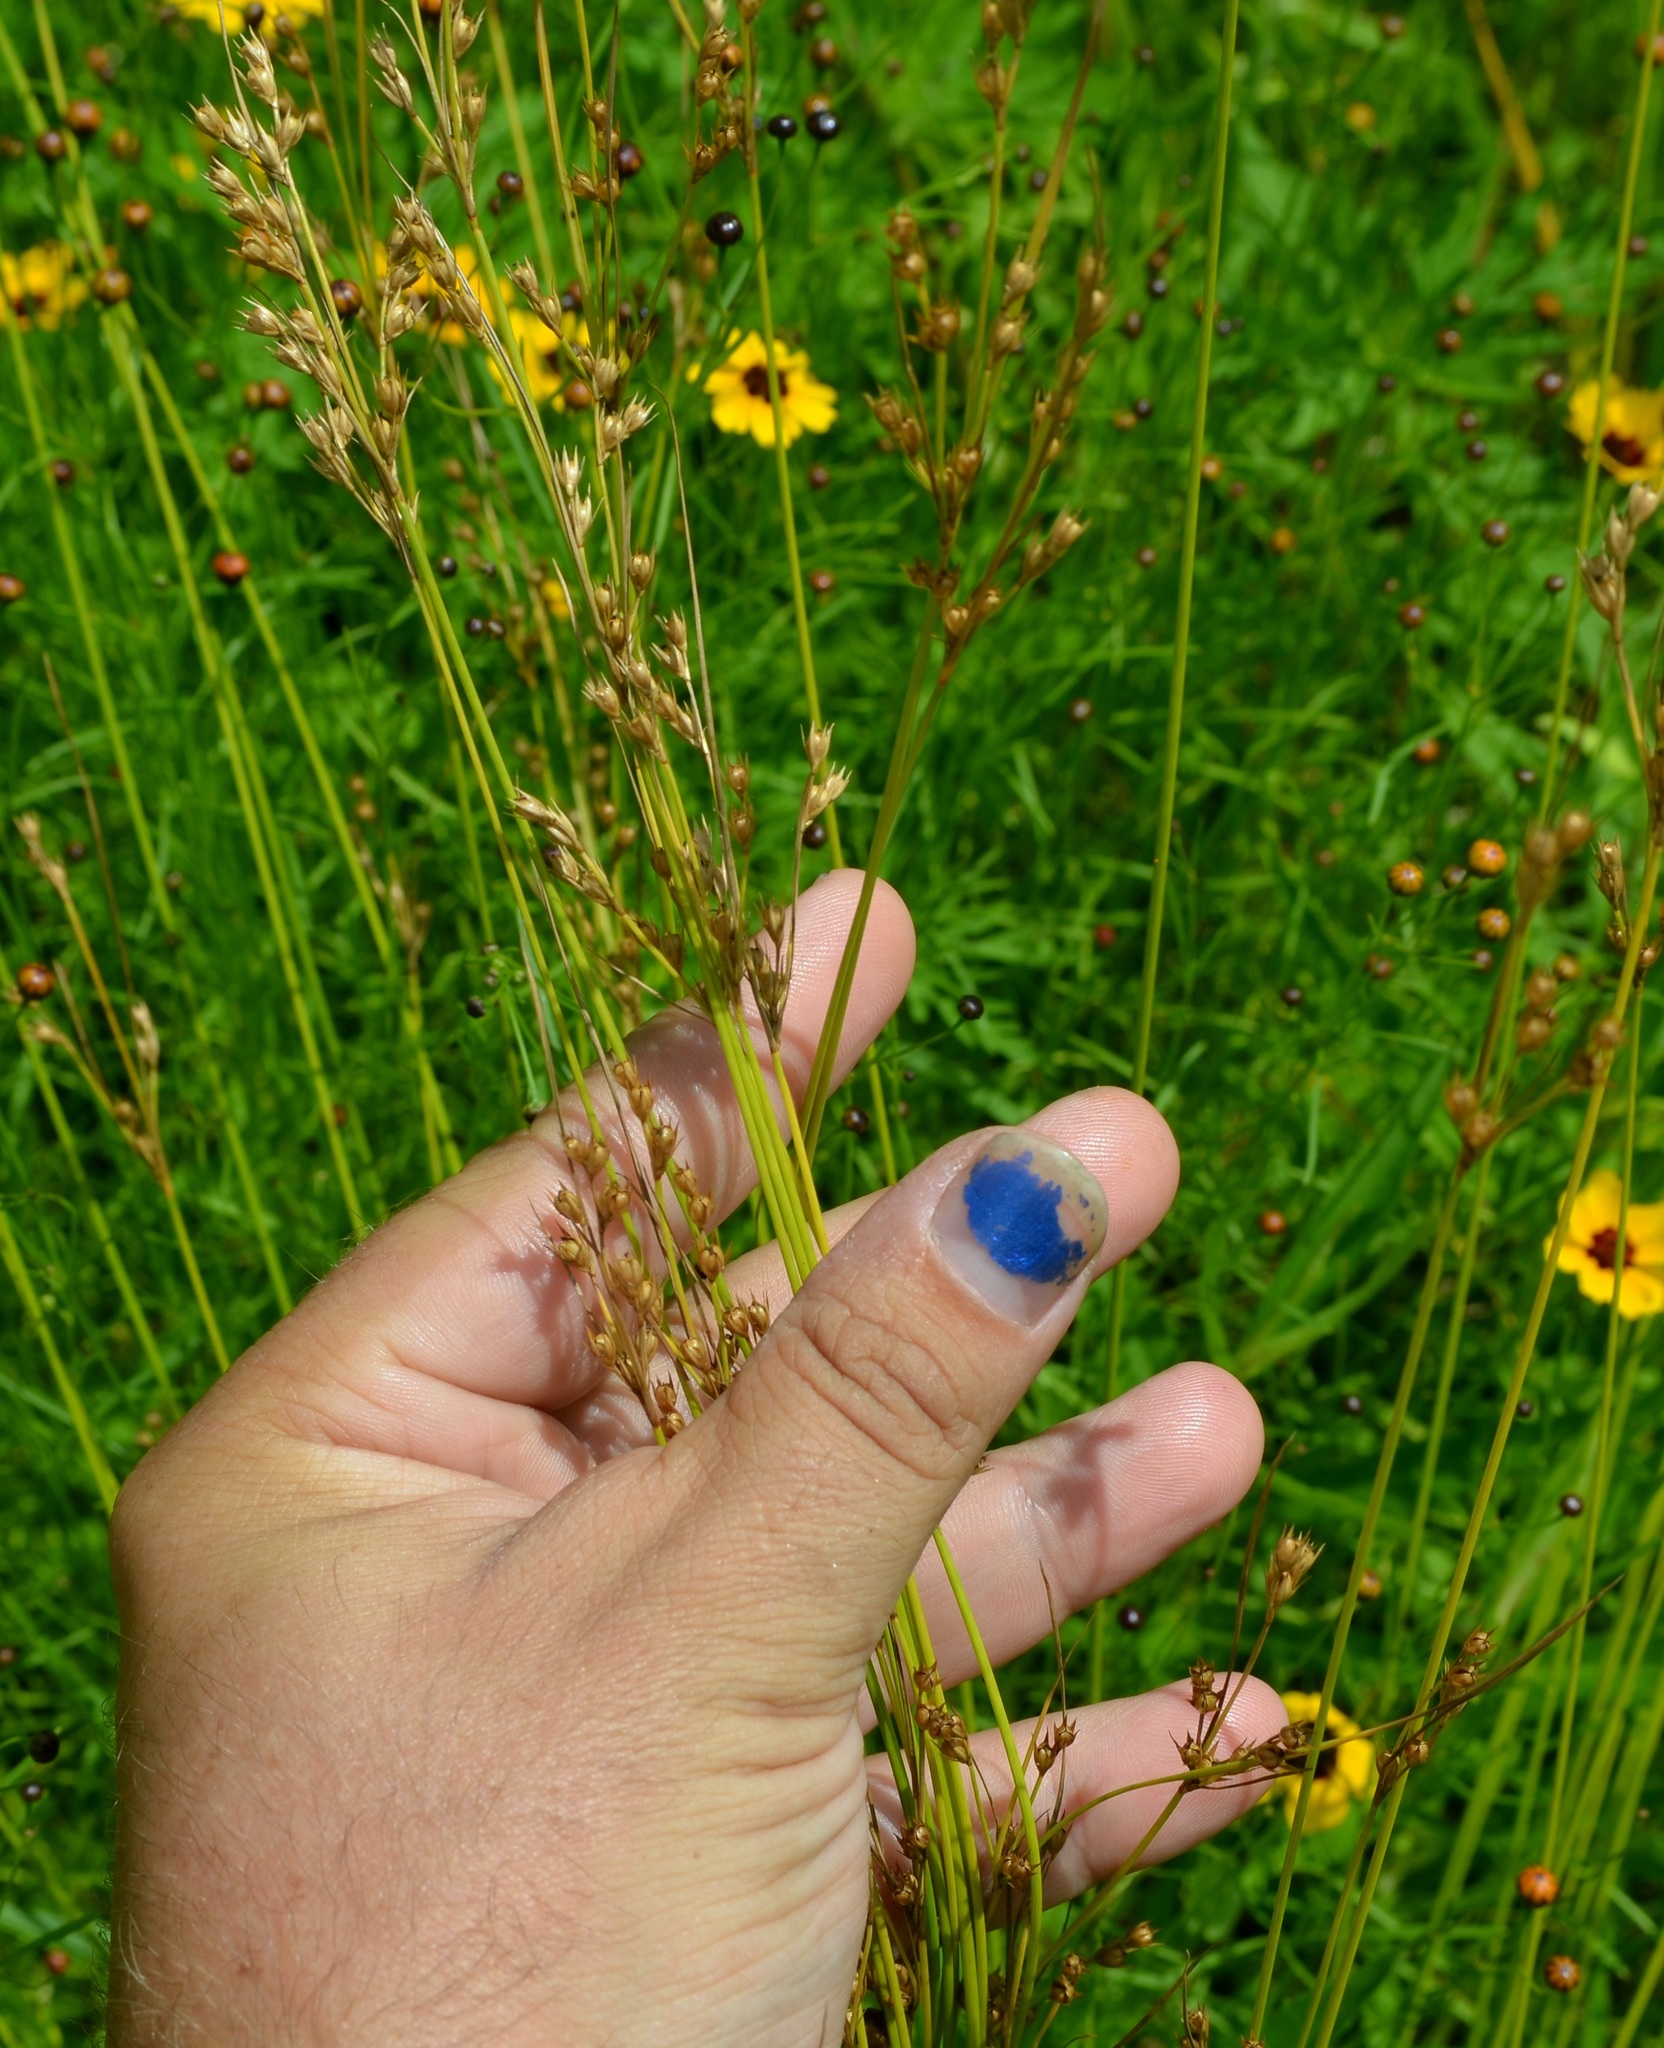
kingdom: Plantae
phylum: Tracheophyta
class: Liliopsida
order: Poales
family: Juncaceae
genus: Juncus
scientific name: Juncus dudleyi
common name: Dudley's rush
